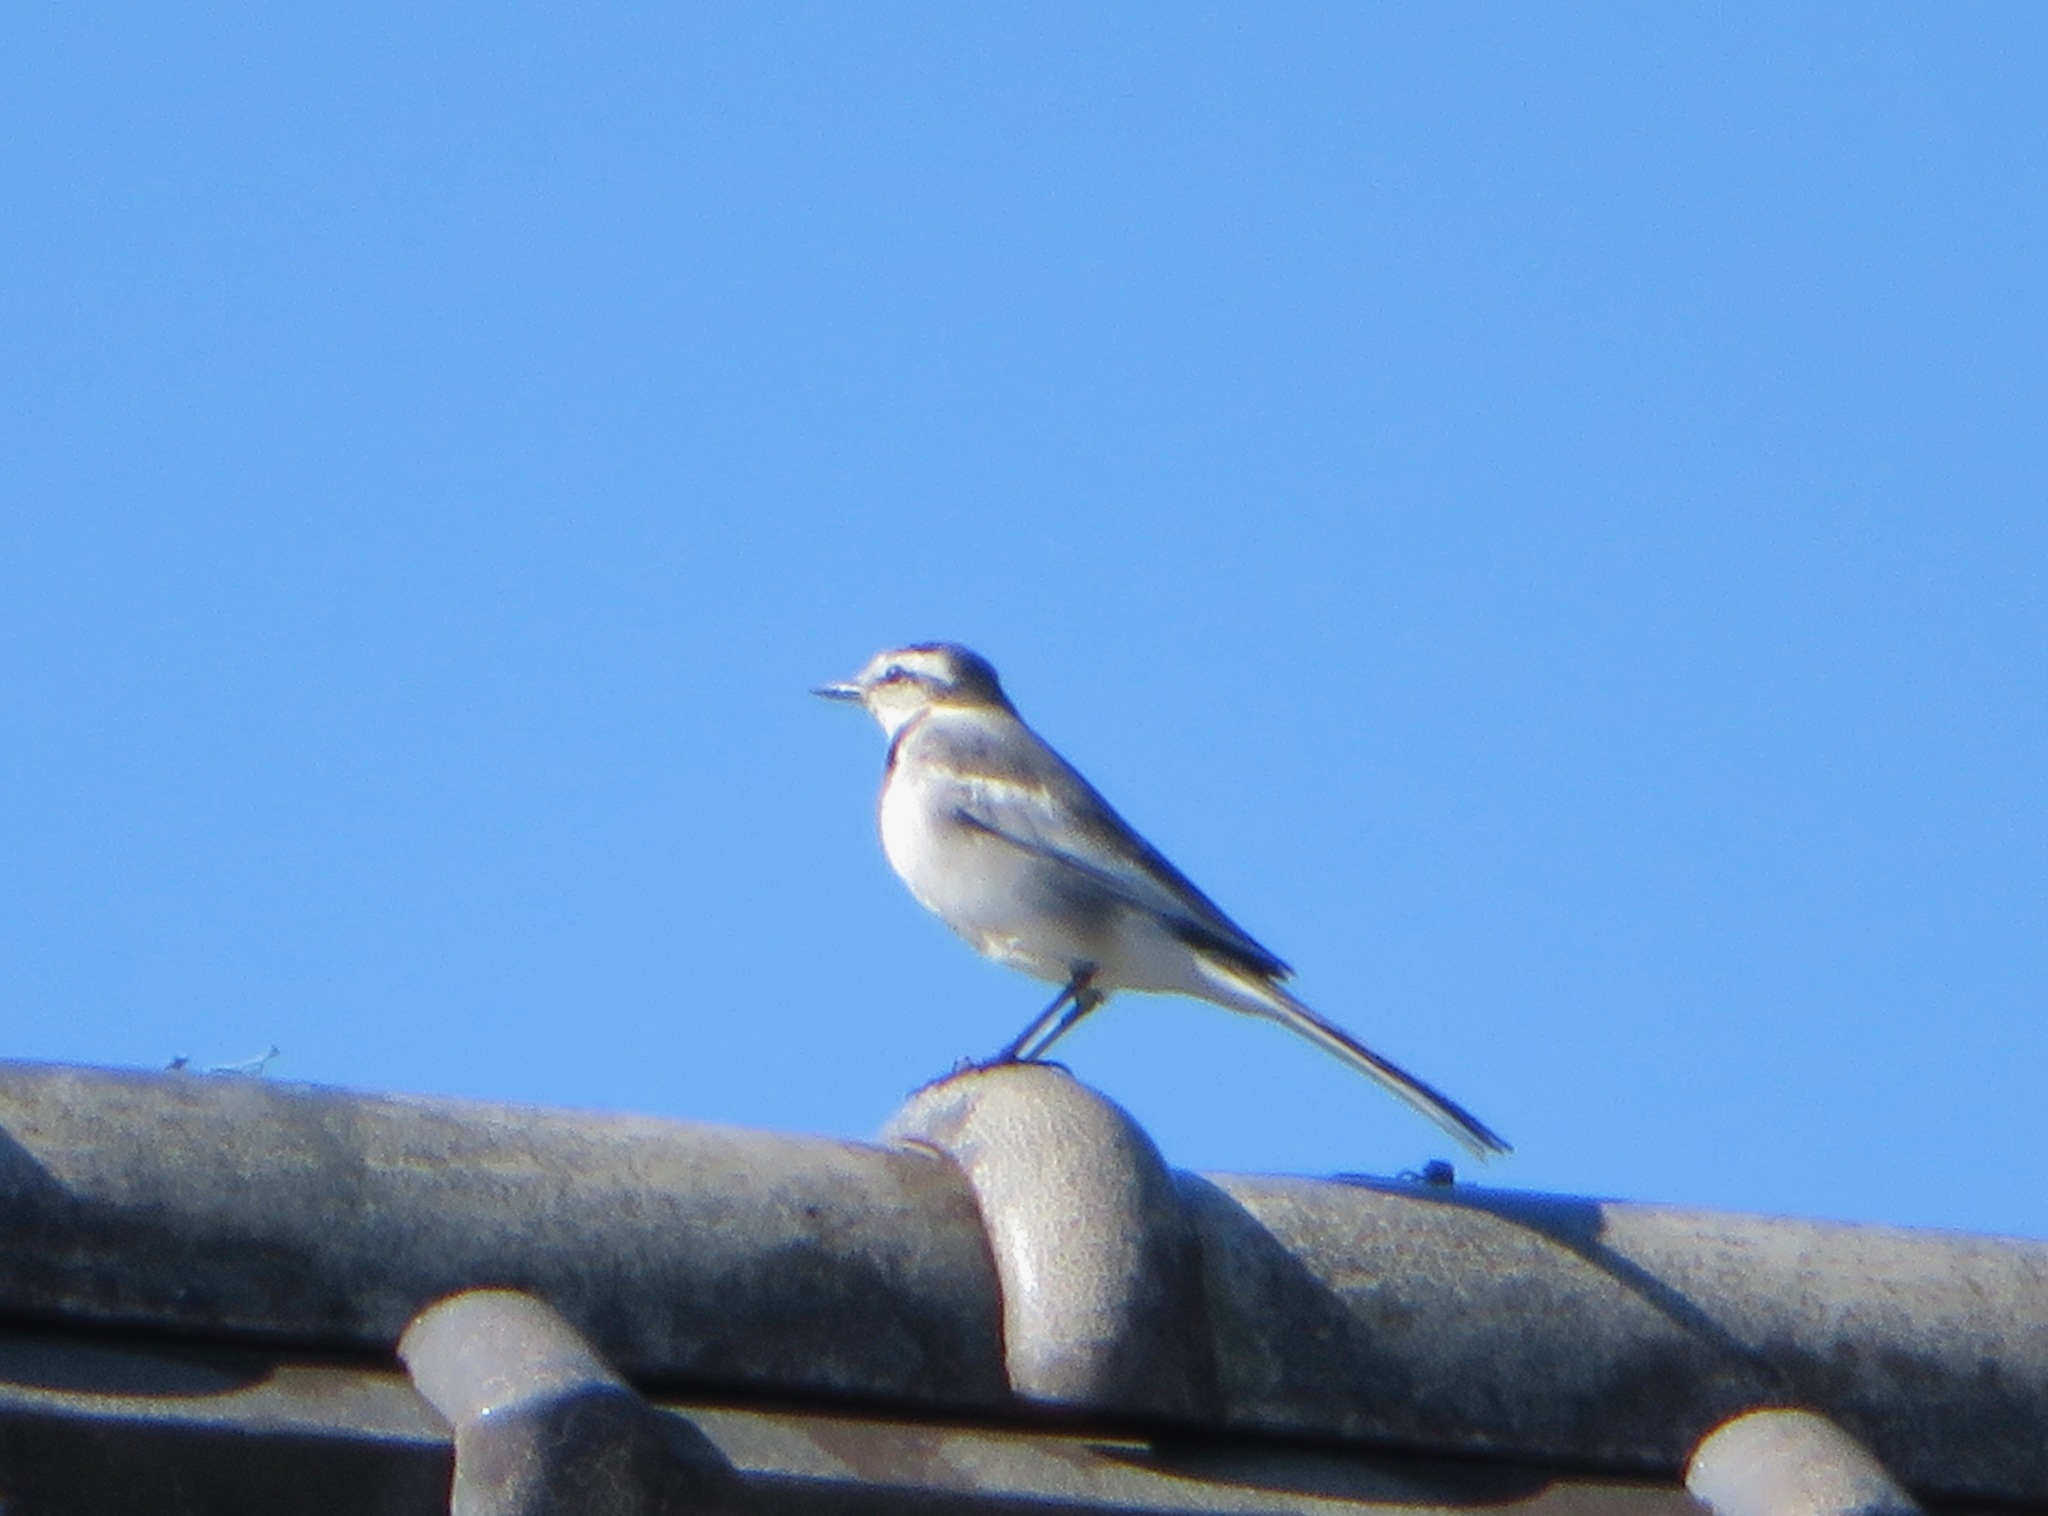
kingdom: Animalia
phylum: Chordata
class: Aves
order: Passeriformes
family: Motacillidae
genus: Motacilla
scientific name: Motacilla alba
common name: White wagtail
